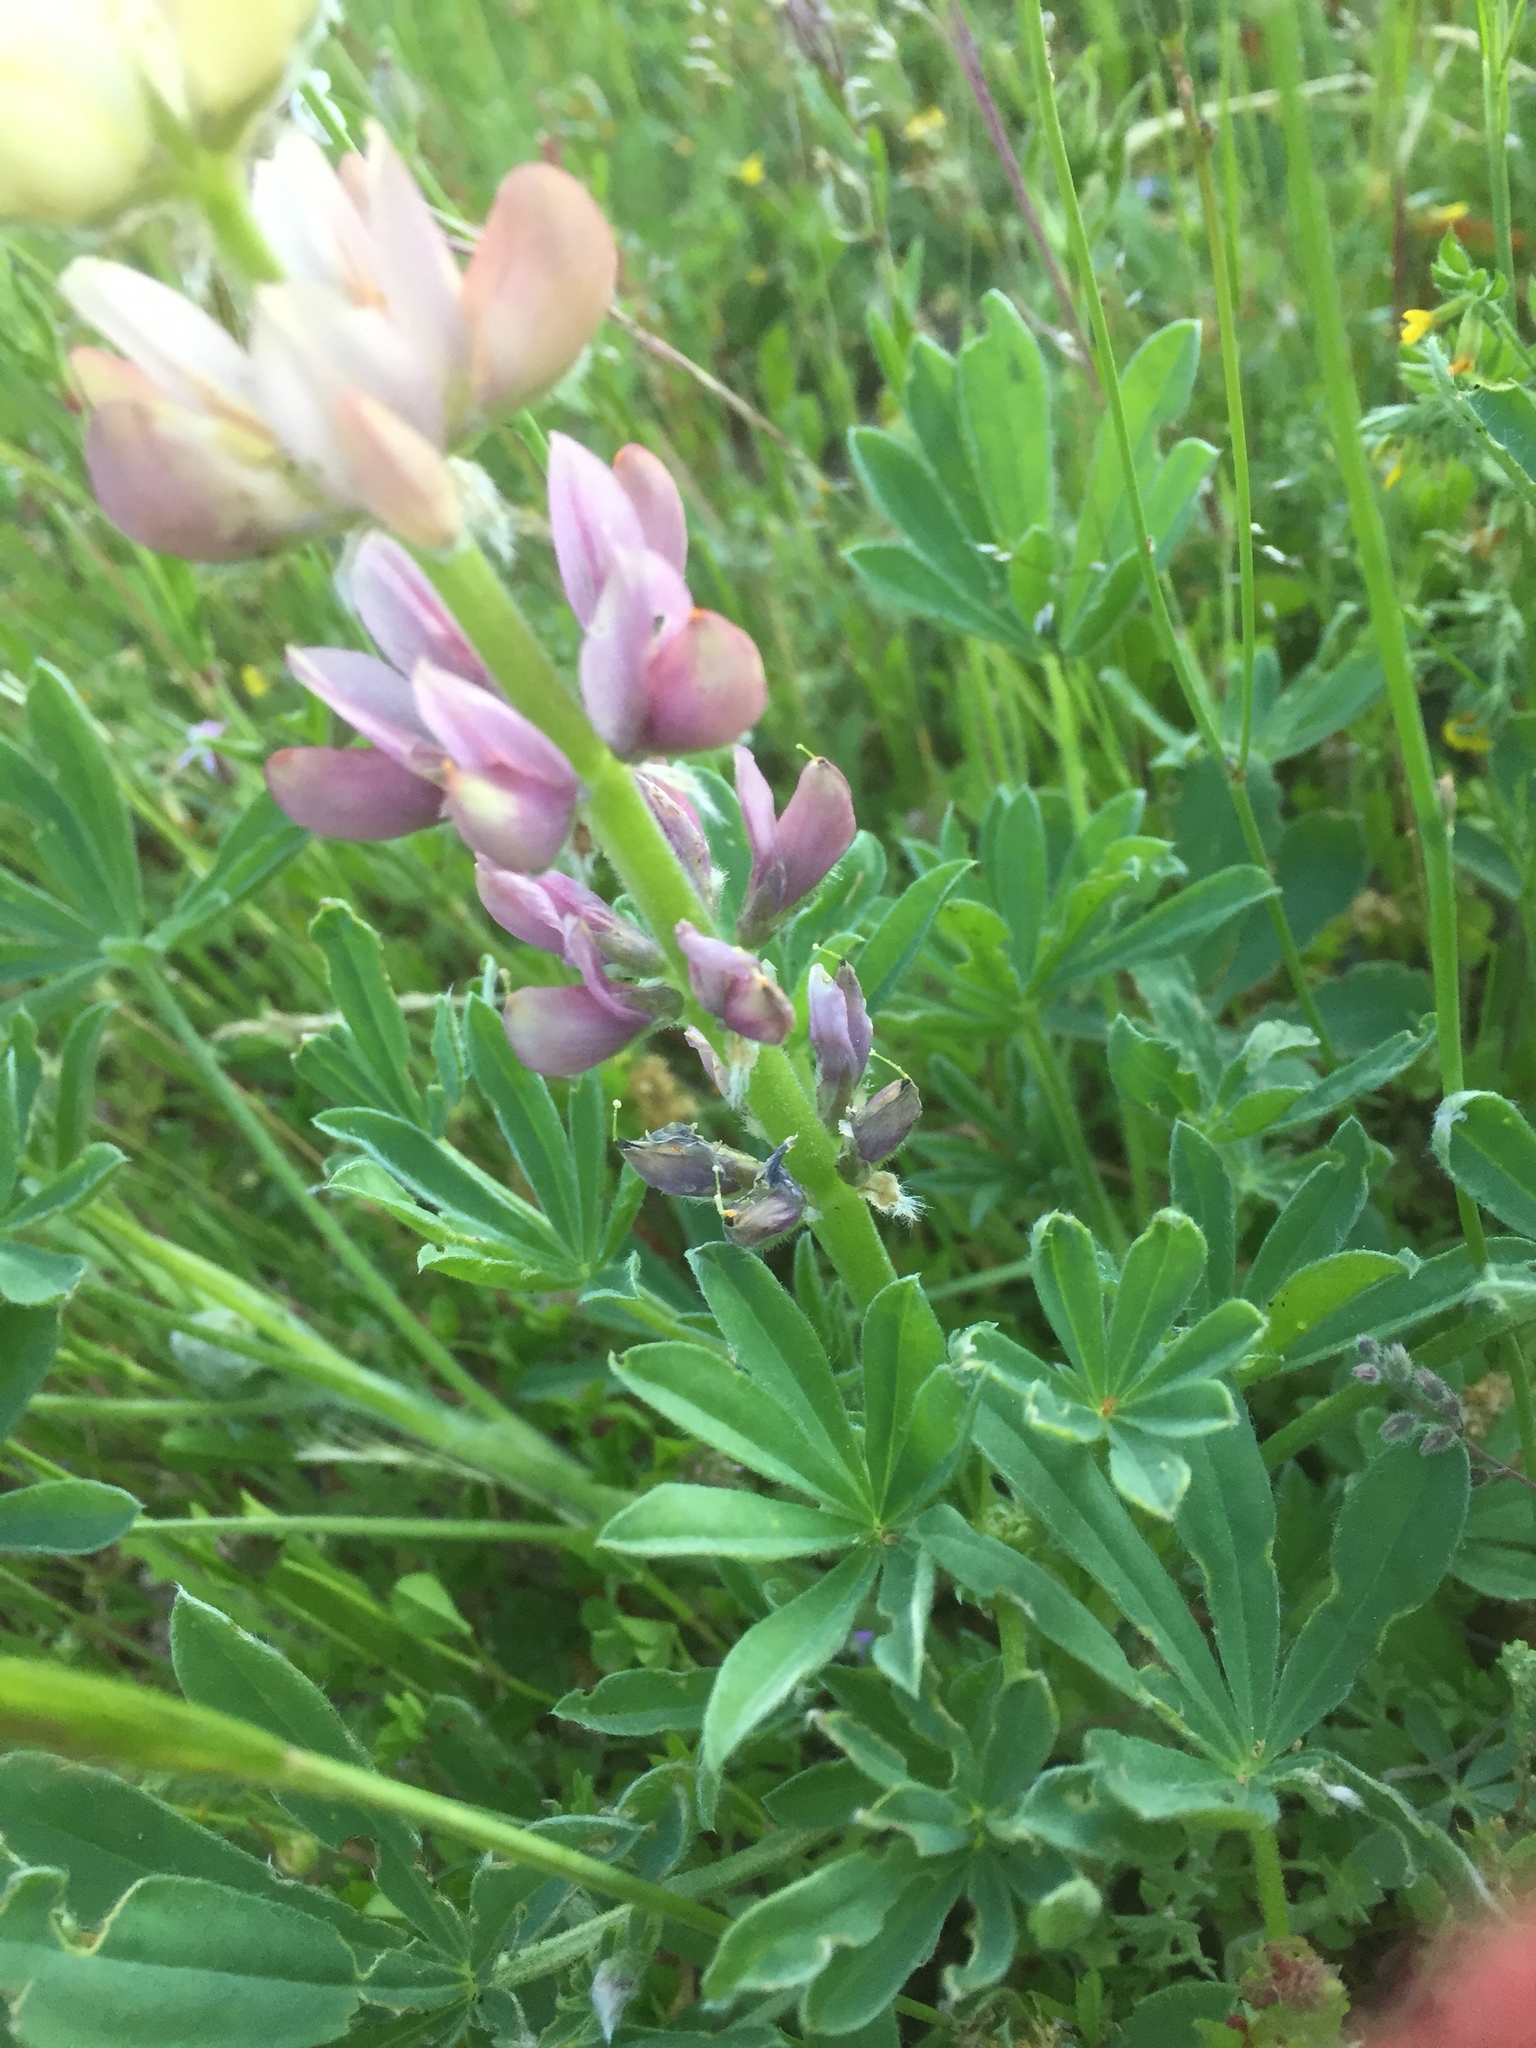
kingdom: Plantae
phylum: Tracheophyta
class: Magnoliopsida
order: Fabales
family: Fabaceae
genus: Lupinus
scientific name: Lupinus gredensis
